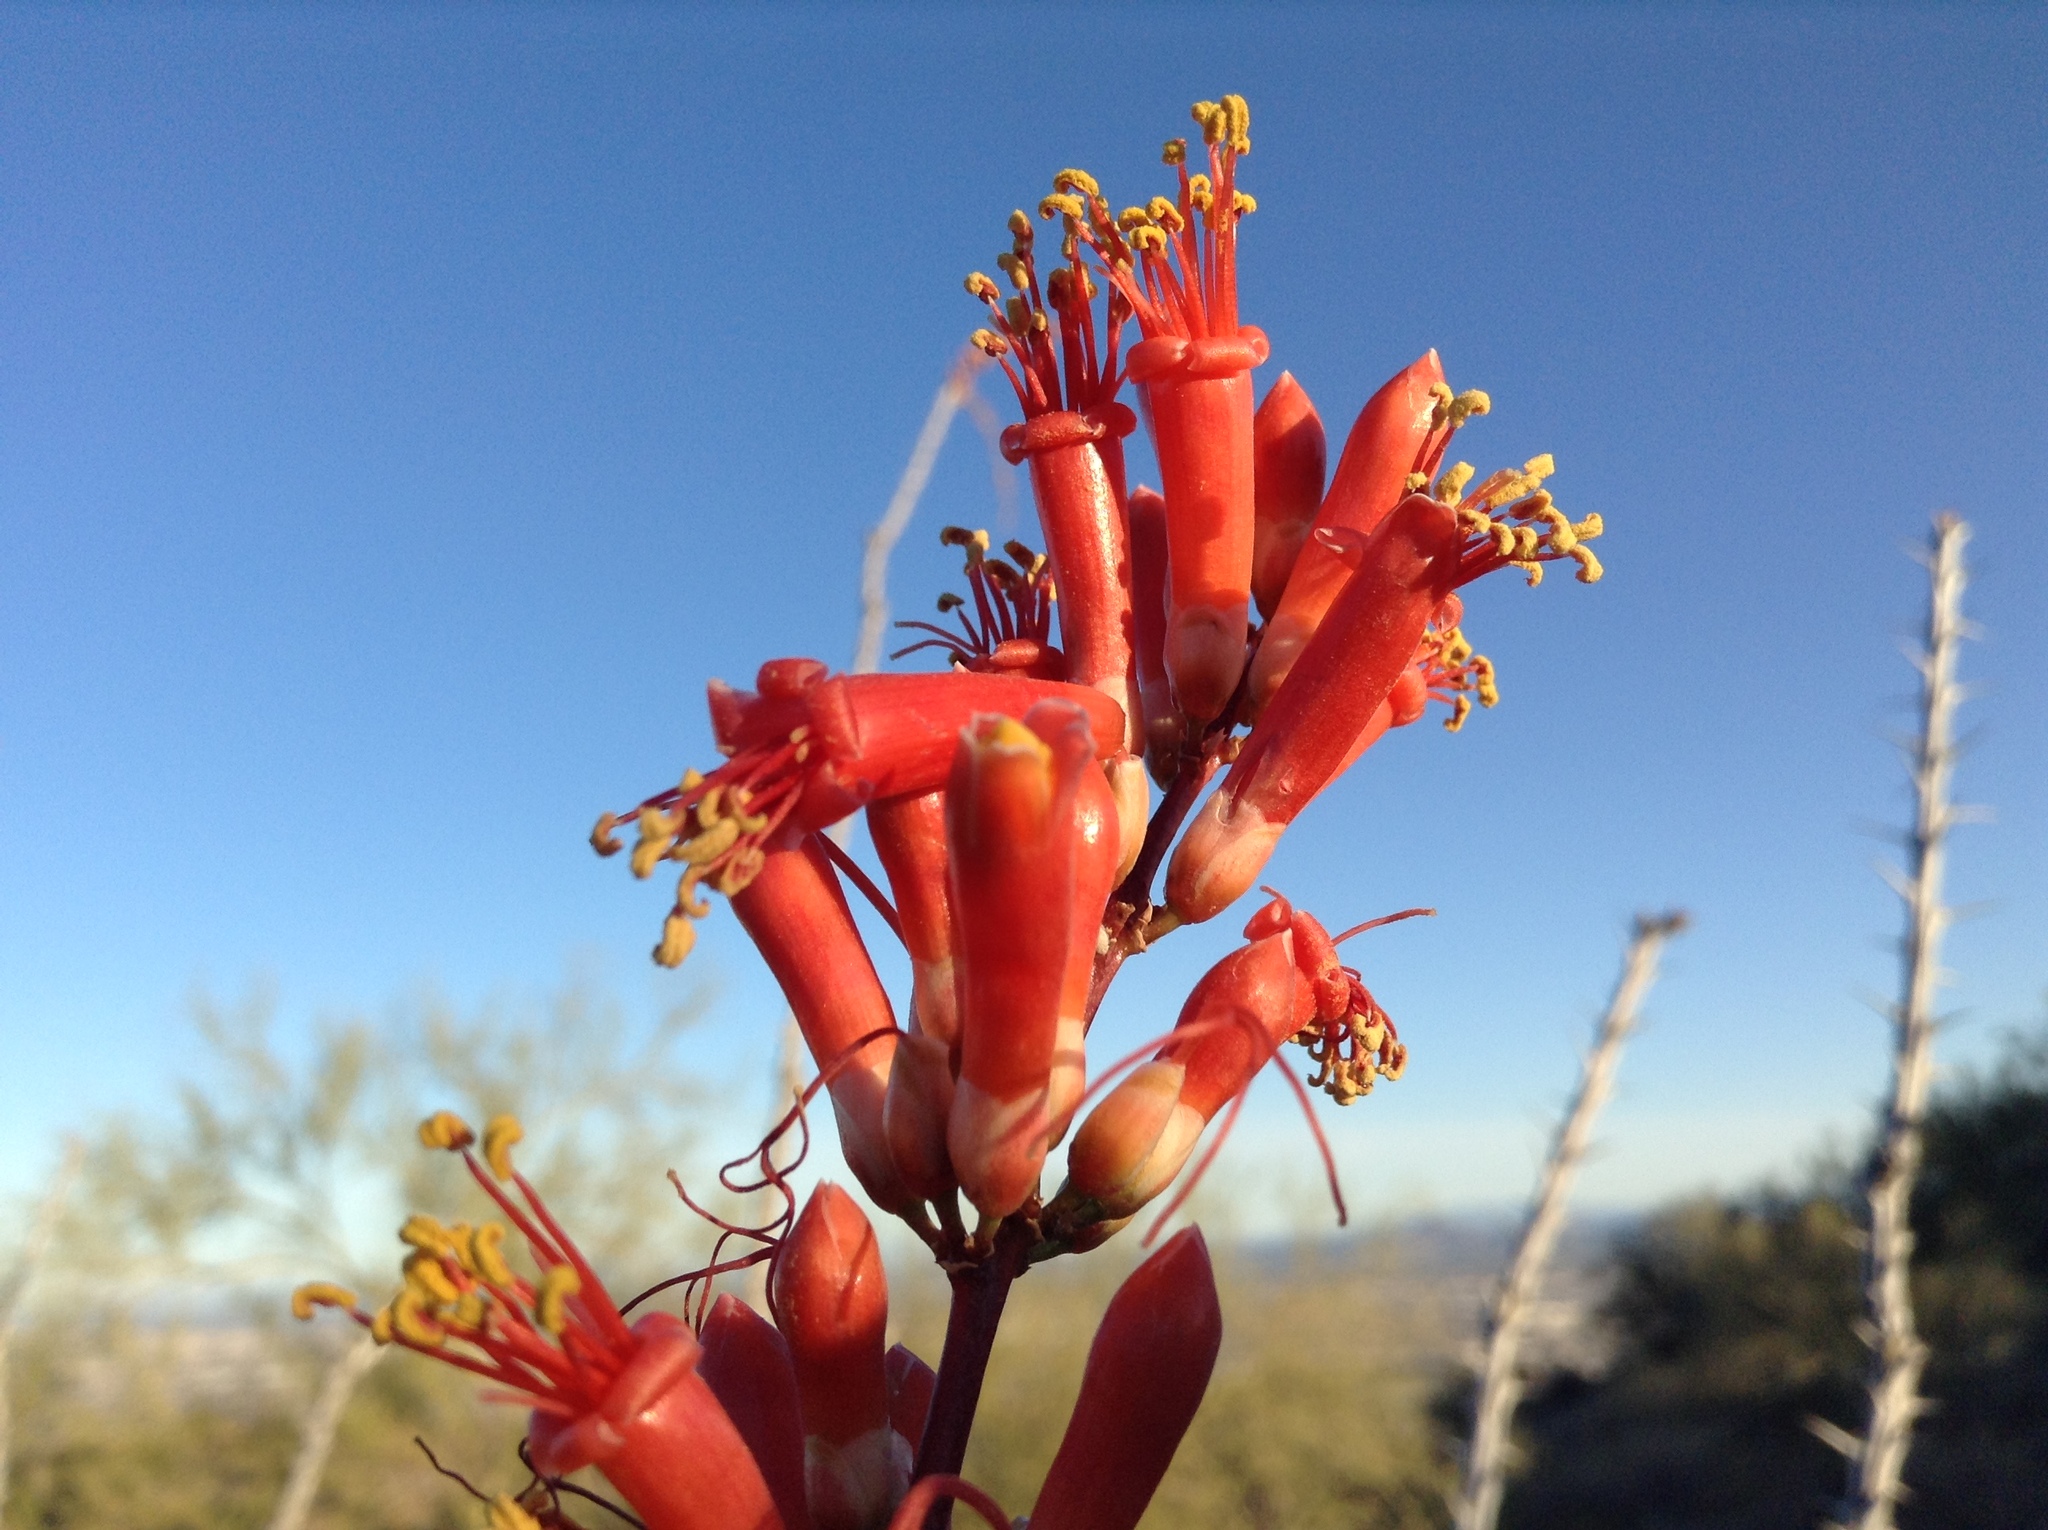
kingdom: Plantae
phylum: Tracheophyta
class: Magnoliopsida
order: Ericales
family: Fouquieriaceae
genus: Fouquieria
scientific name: Fouquieria splendens
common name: Vine-cactus
